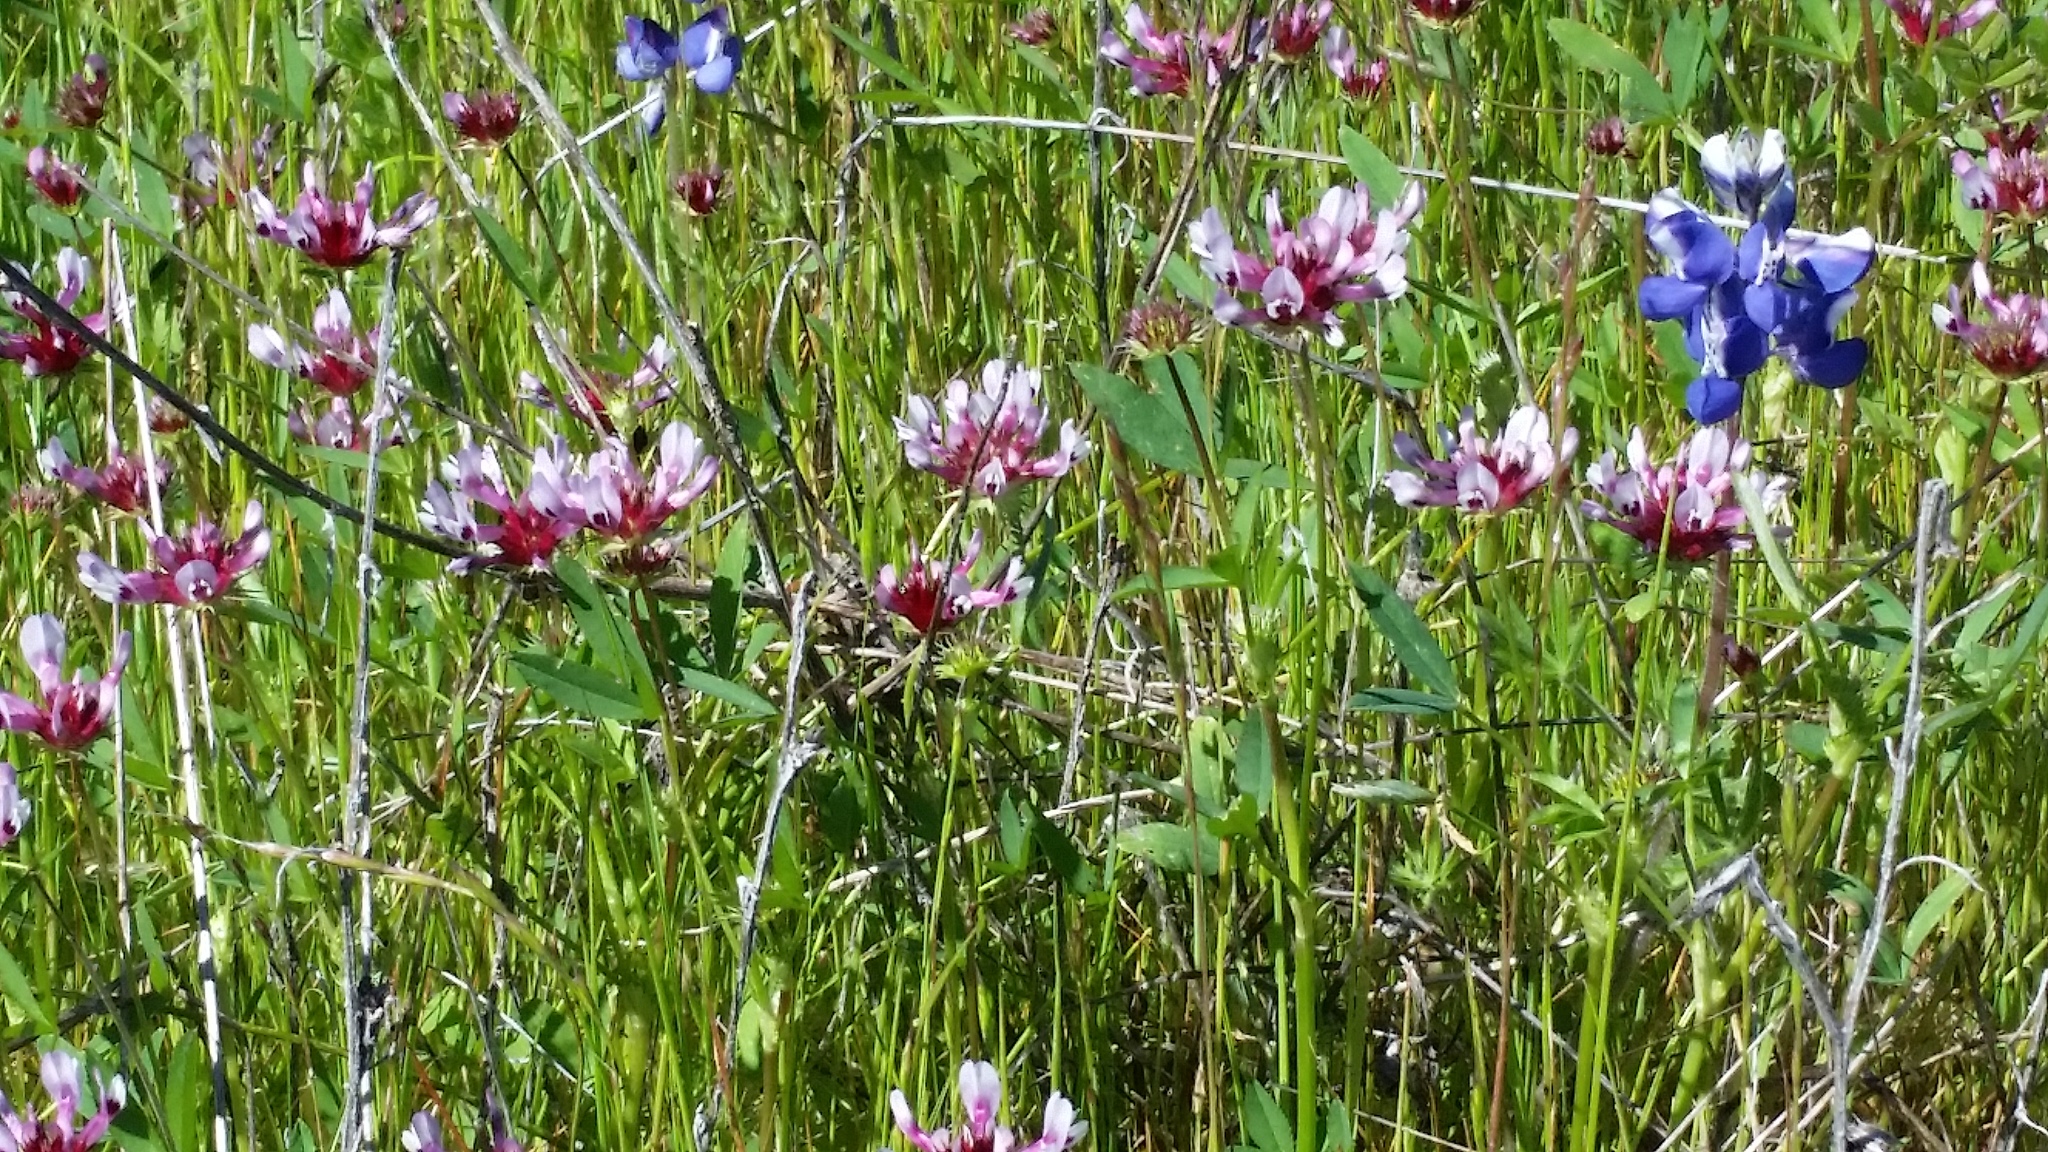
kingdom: Plantae
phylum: Tracheophyta
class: Magnoliopsida
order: Fabales
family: Fabaceae
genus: Trifolium
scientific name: Trifolium willdenovii
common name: Tomcat clover
